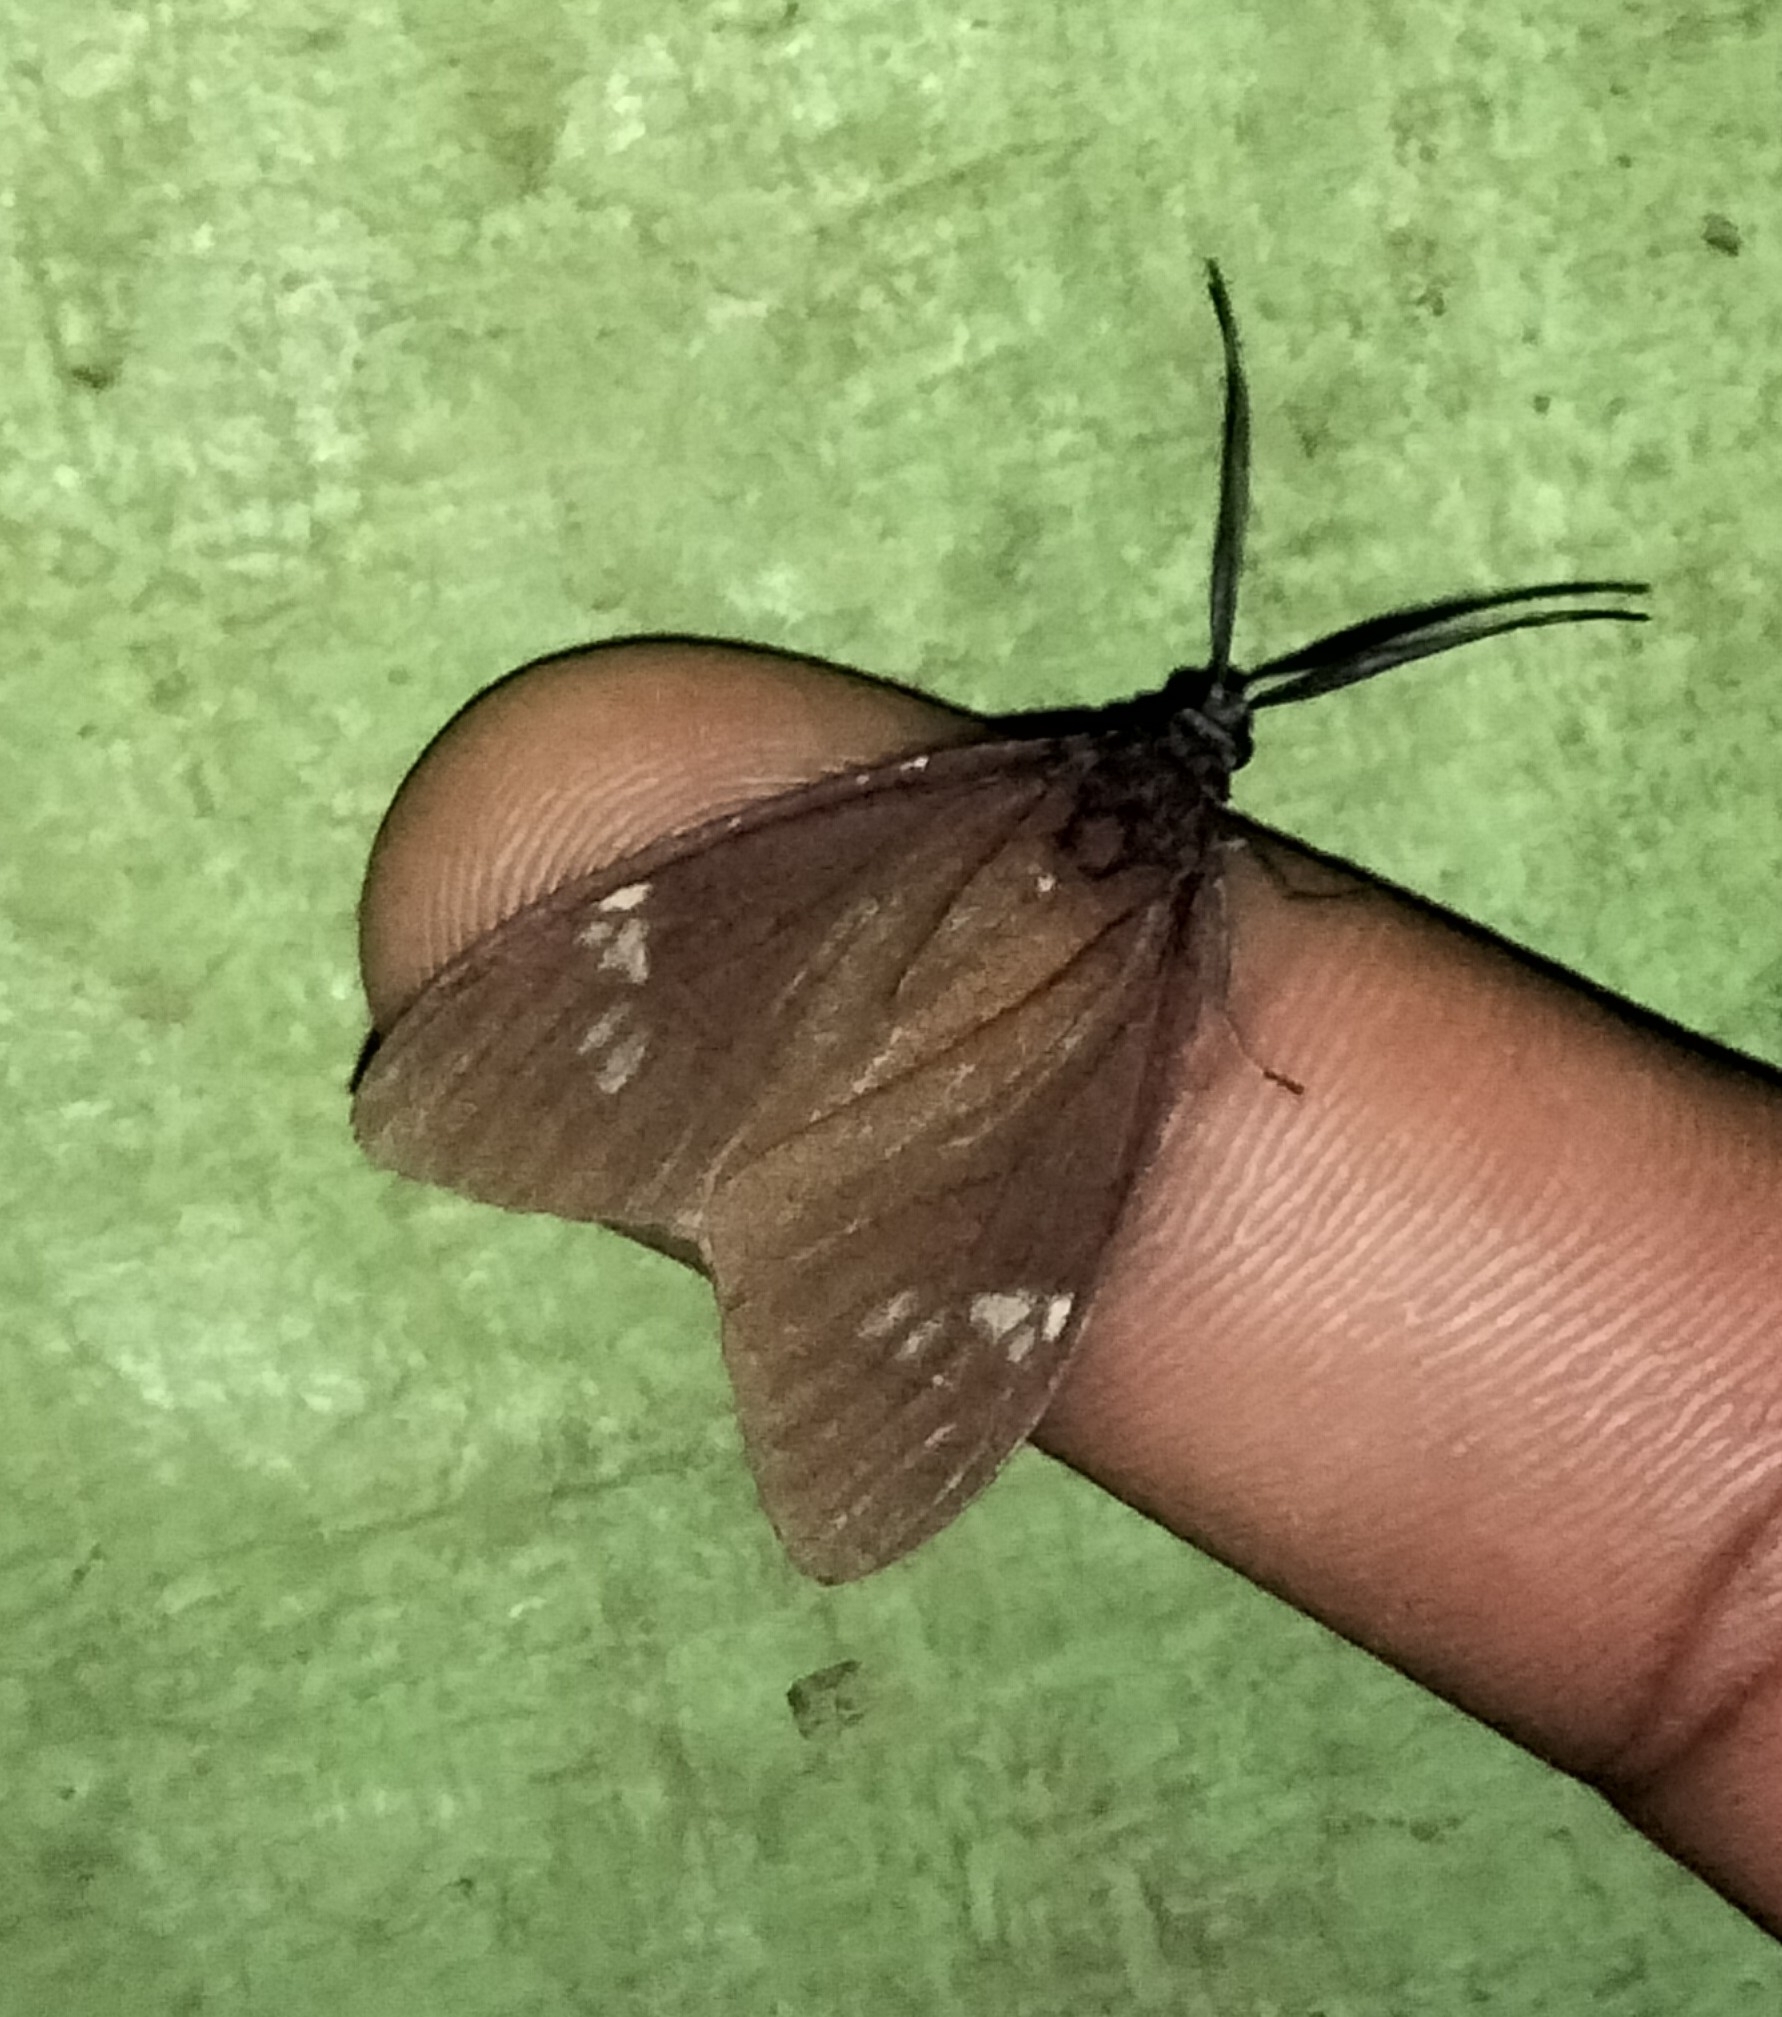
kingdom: Animalia
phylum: Arthropoda
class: Insecta
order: Lepidoptera
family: Zygaenidae
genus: Cyclosia
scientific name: Cyclosia
